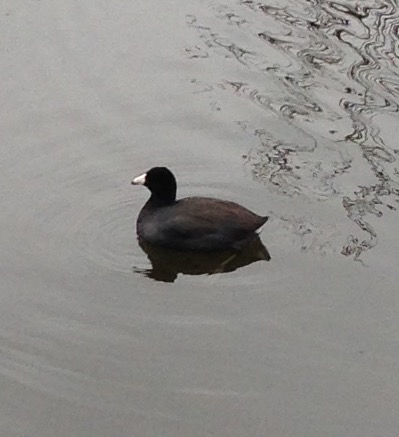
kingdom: Animalia
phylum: Chordata
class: Aves
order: Gruiformes
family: Rallidae
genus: Fulica
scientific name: Fulica americana
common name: American coot
